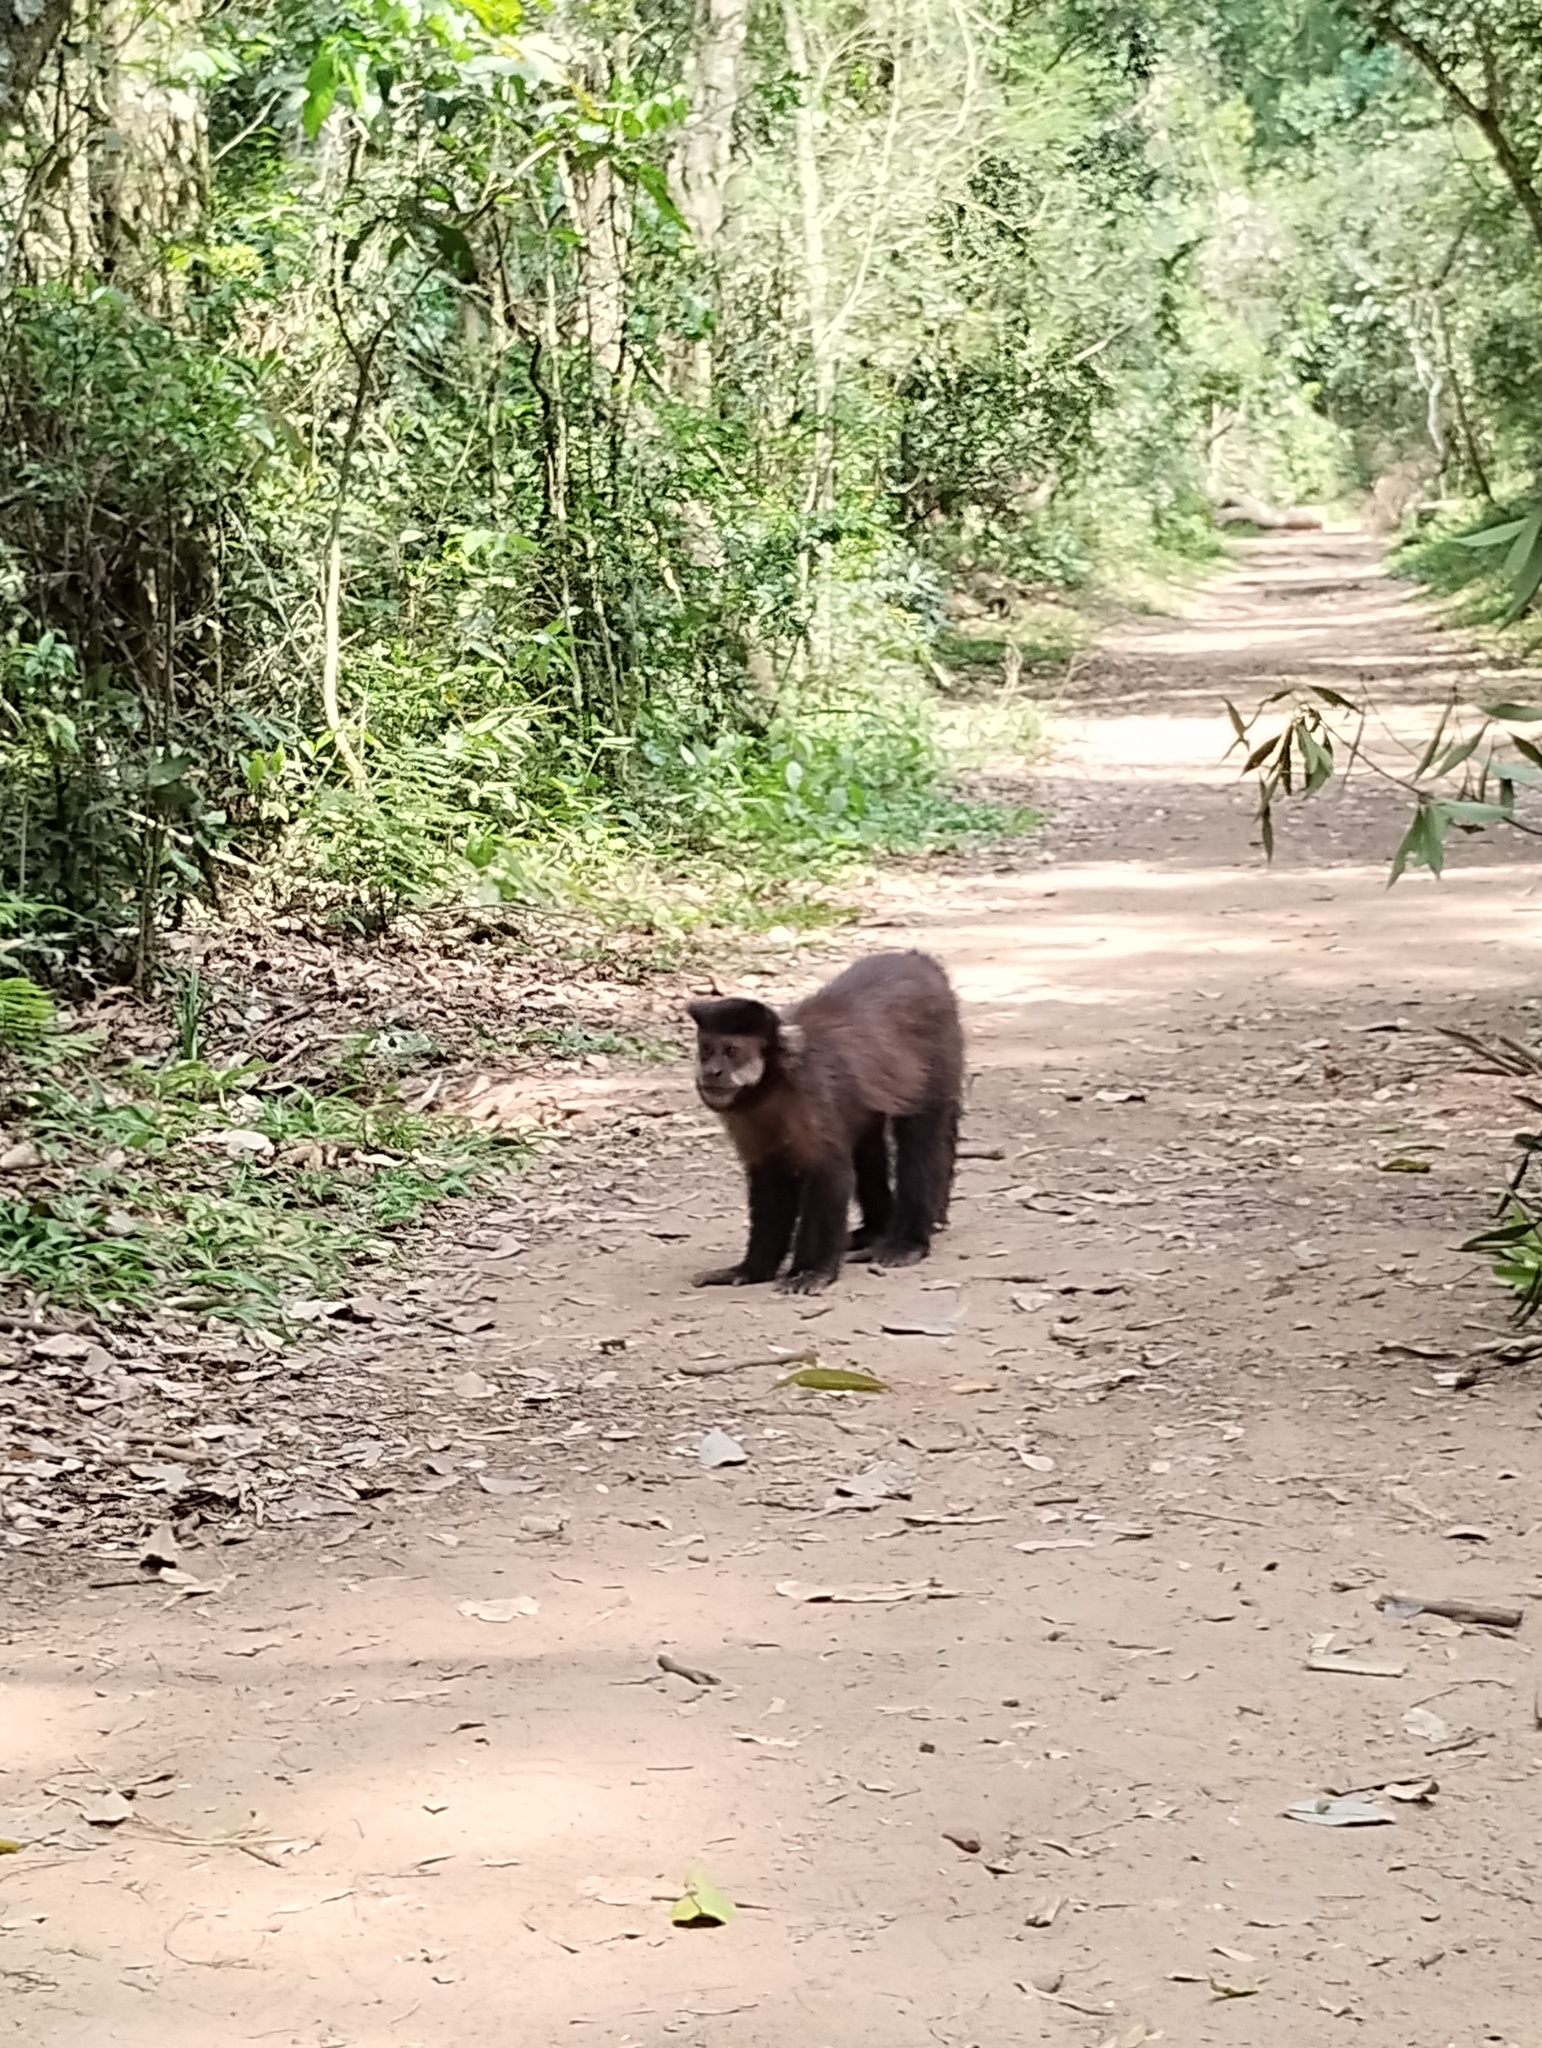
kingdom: Animalia
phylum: Chordata
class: Mammalia
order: Primates
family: Cebidae
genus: Sapajus
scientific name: Sapajus nigritus
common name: Black capuchin
